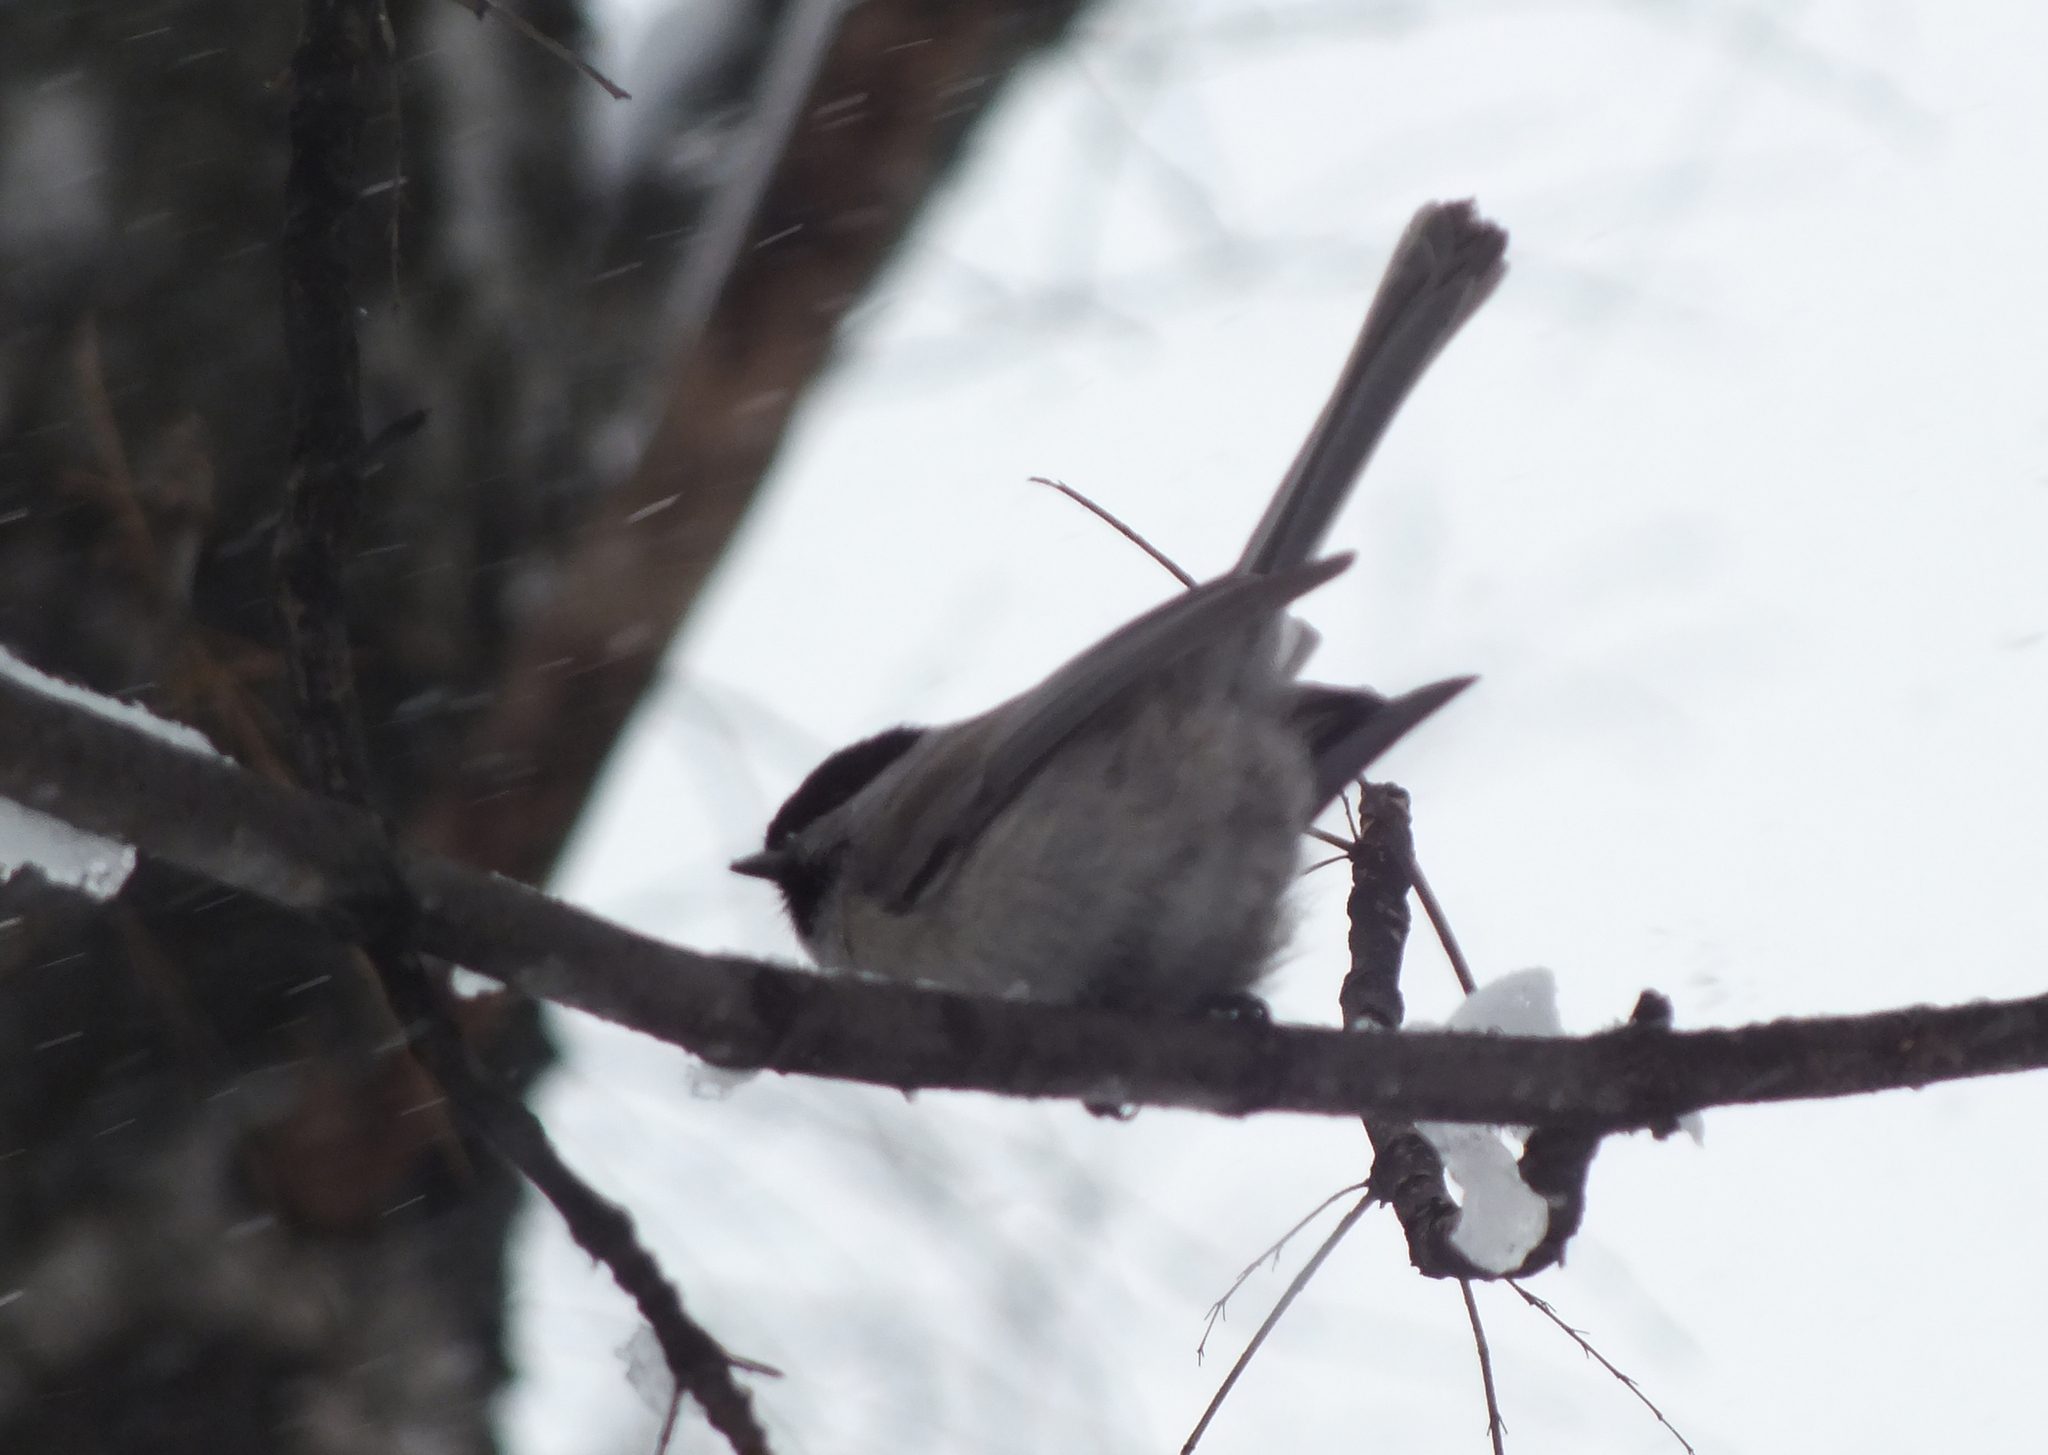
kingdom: Animalia
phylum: Chordata
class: Aves
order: Passeriformes
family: Paridae
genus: Poecile
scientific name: Poecile montanus
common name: Willow tit
